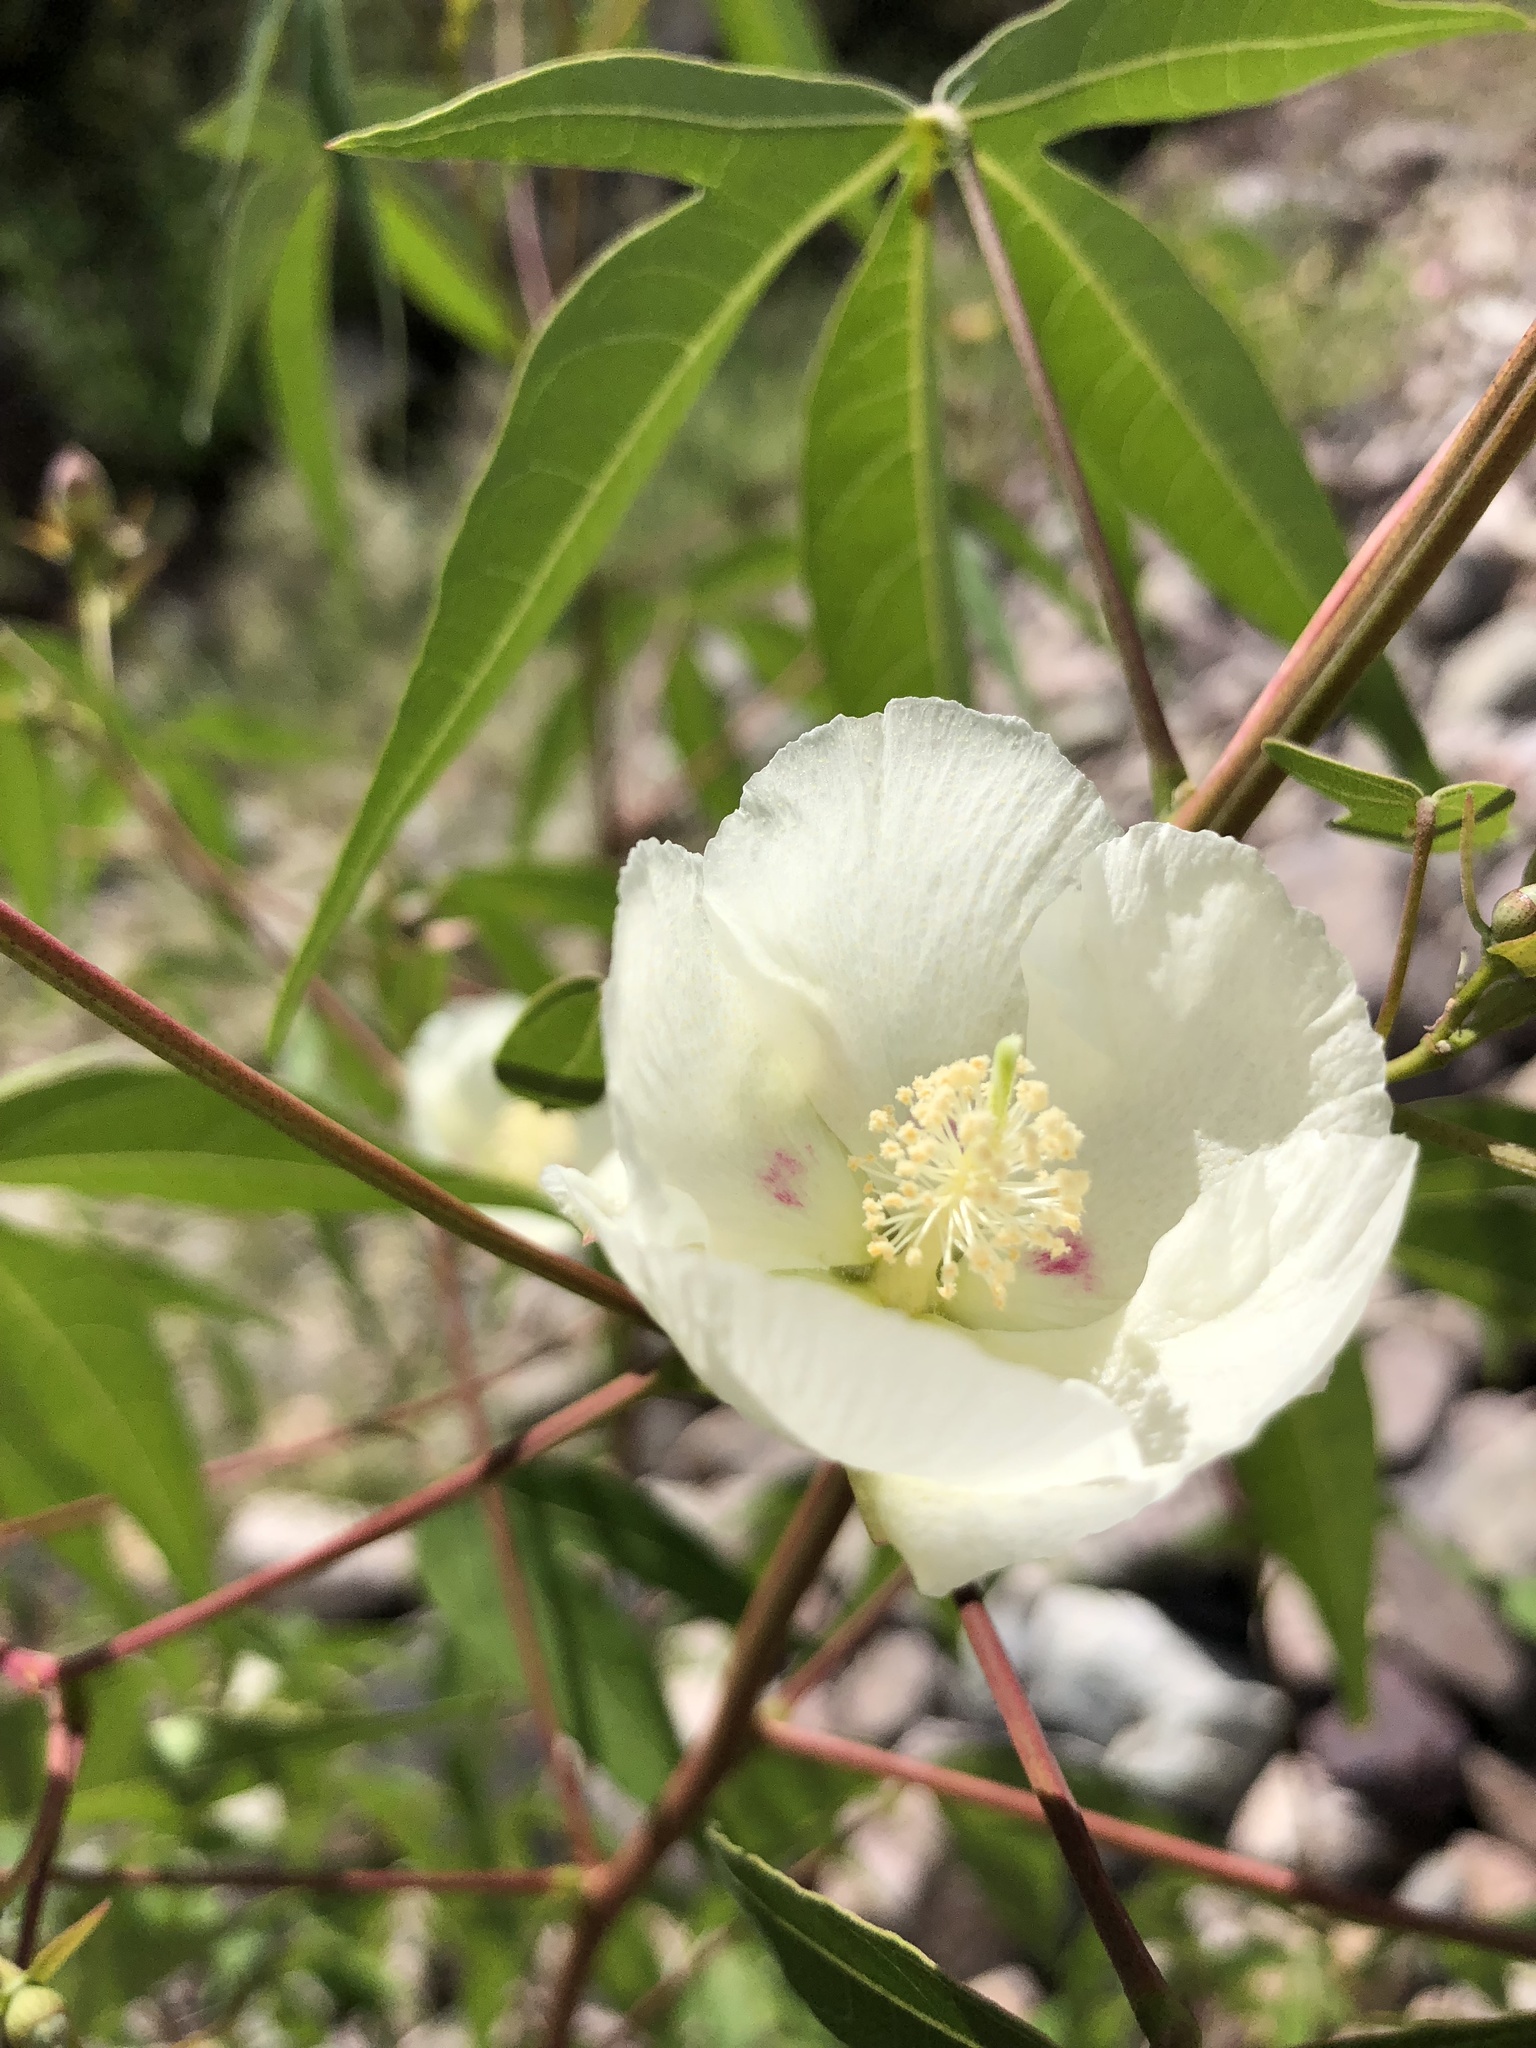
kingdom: Plantae
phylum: Tracheophyta
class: Magnoliopsida
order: Malvales
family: Malvaceae
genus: Gossypium
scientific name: Gossypium thurberi
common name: Desert cotton
